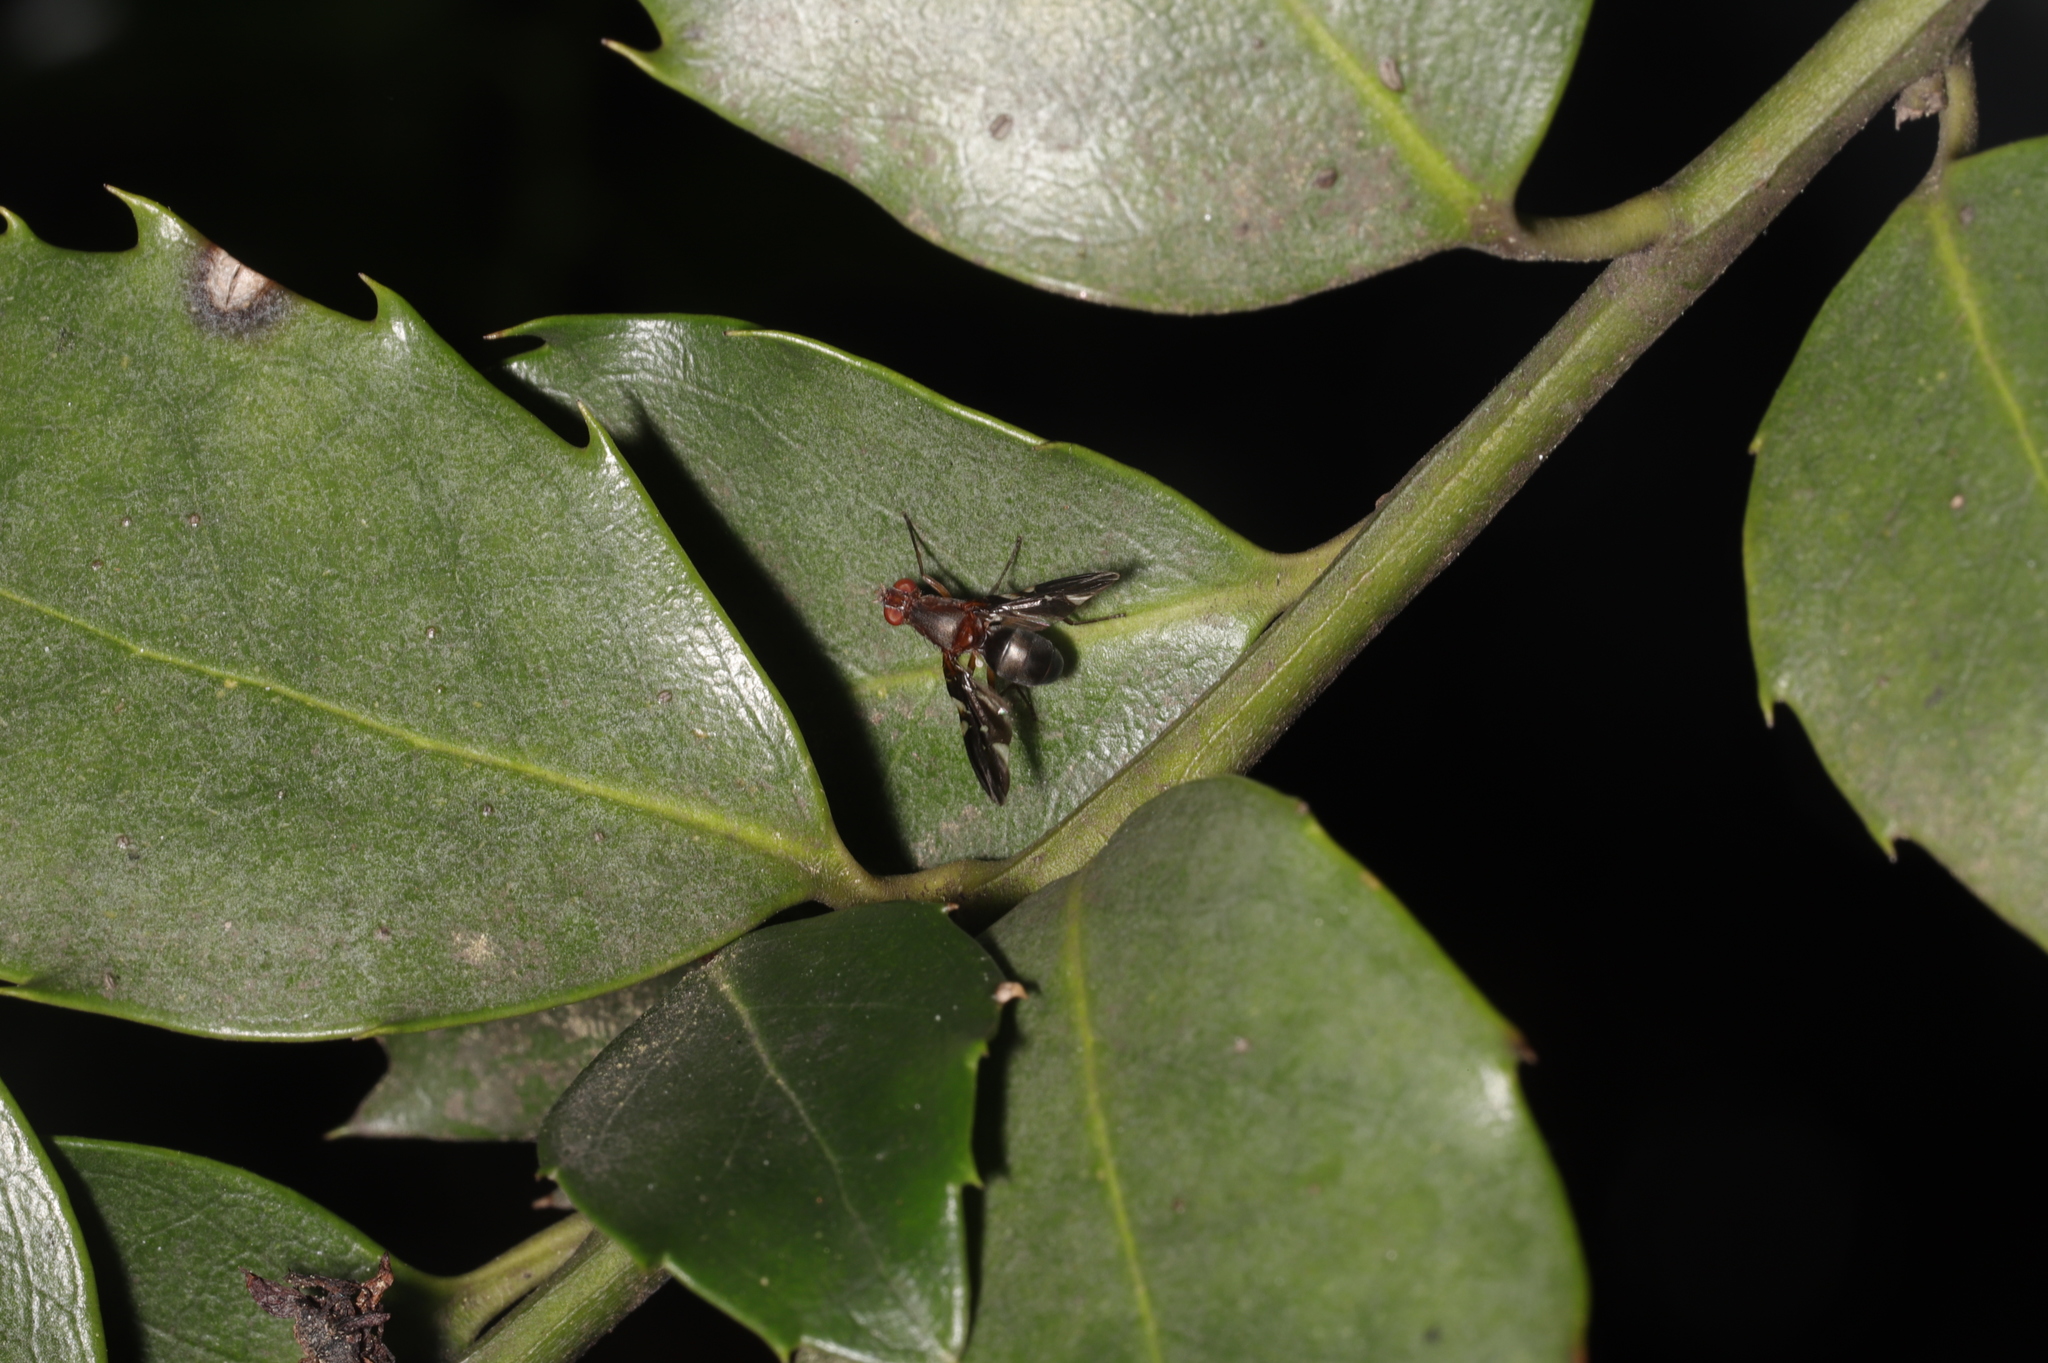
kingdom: Animalia
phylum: Arthropoda
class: Insecta
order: Diptera
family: Ulidiidae
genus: Delphinia
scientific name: Delphinia picta
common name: Common picture-winged fly
